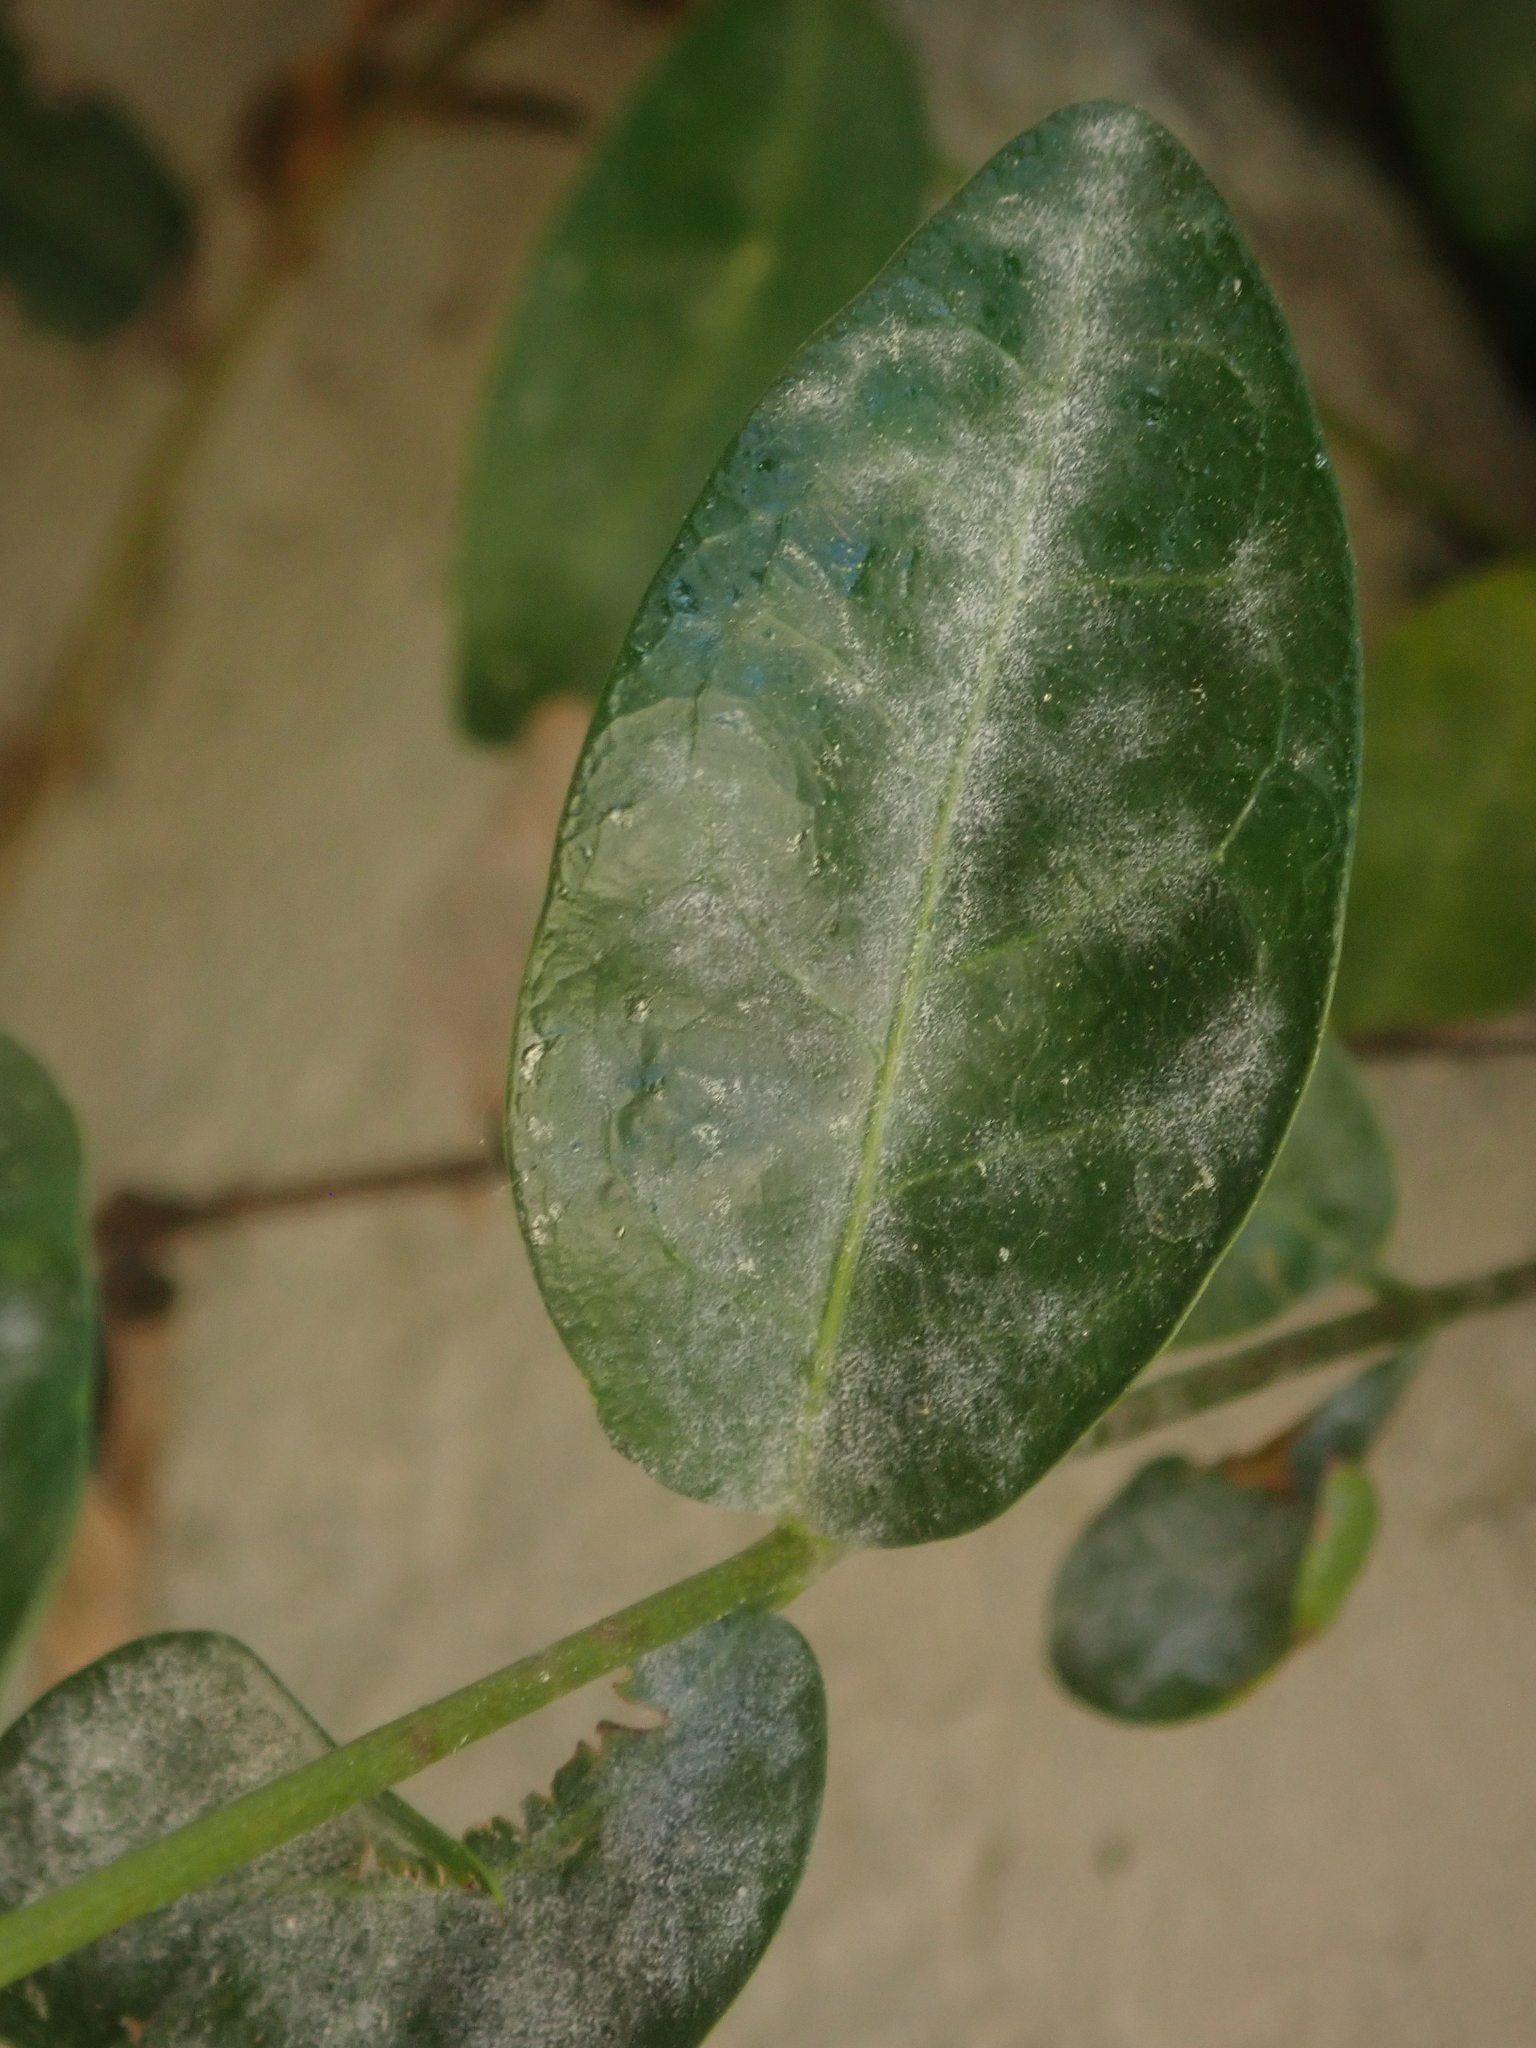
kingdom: Fungi
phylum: Ascomycota
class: Leotiomycetes
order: Helotiales
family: Erysiphaceae
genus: Pseudoidium
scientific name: Pseudoidium vincae
